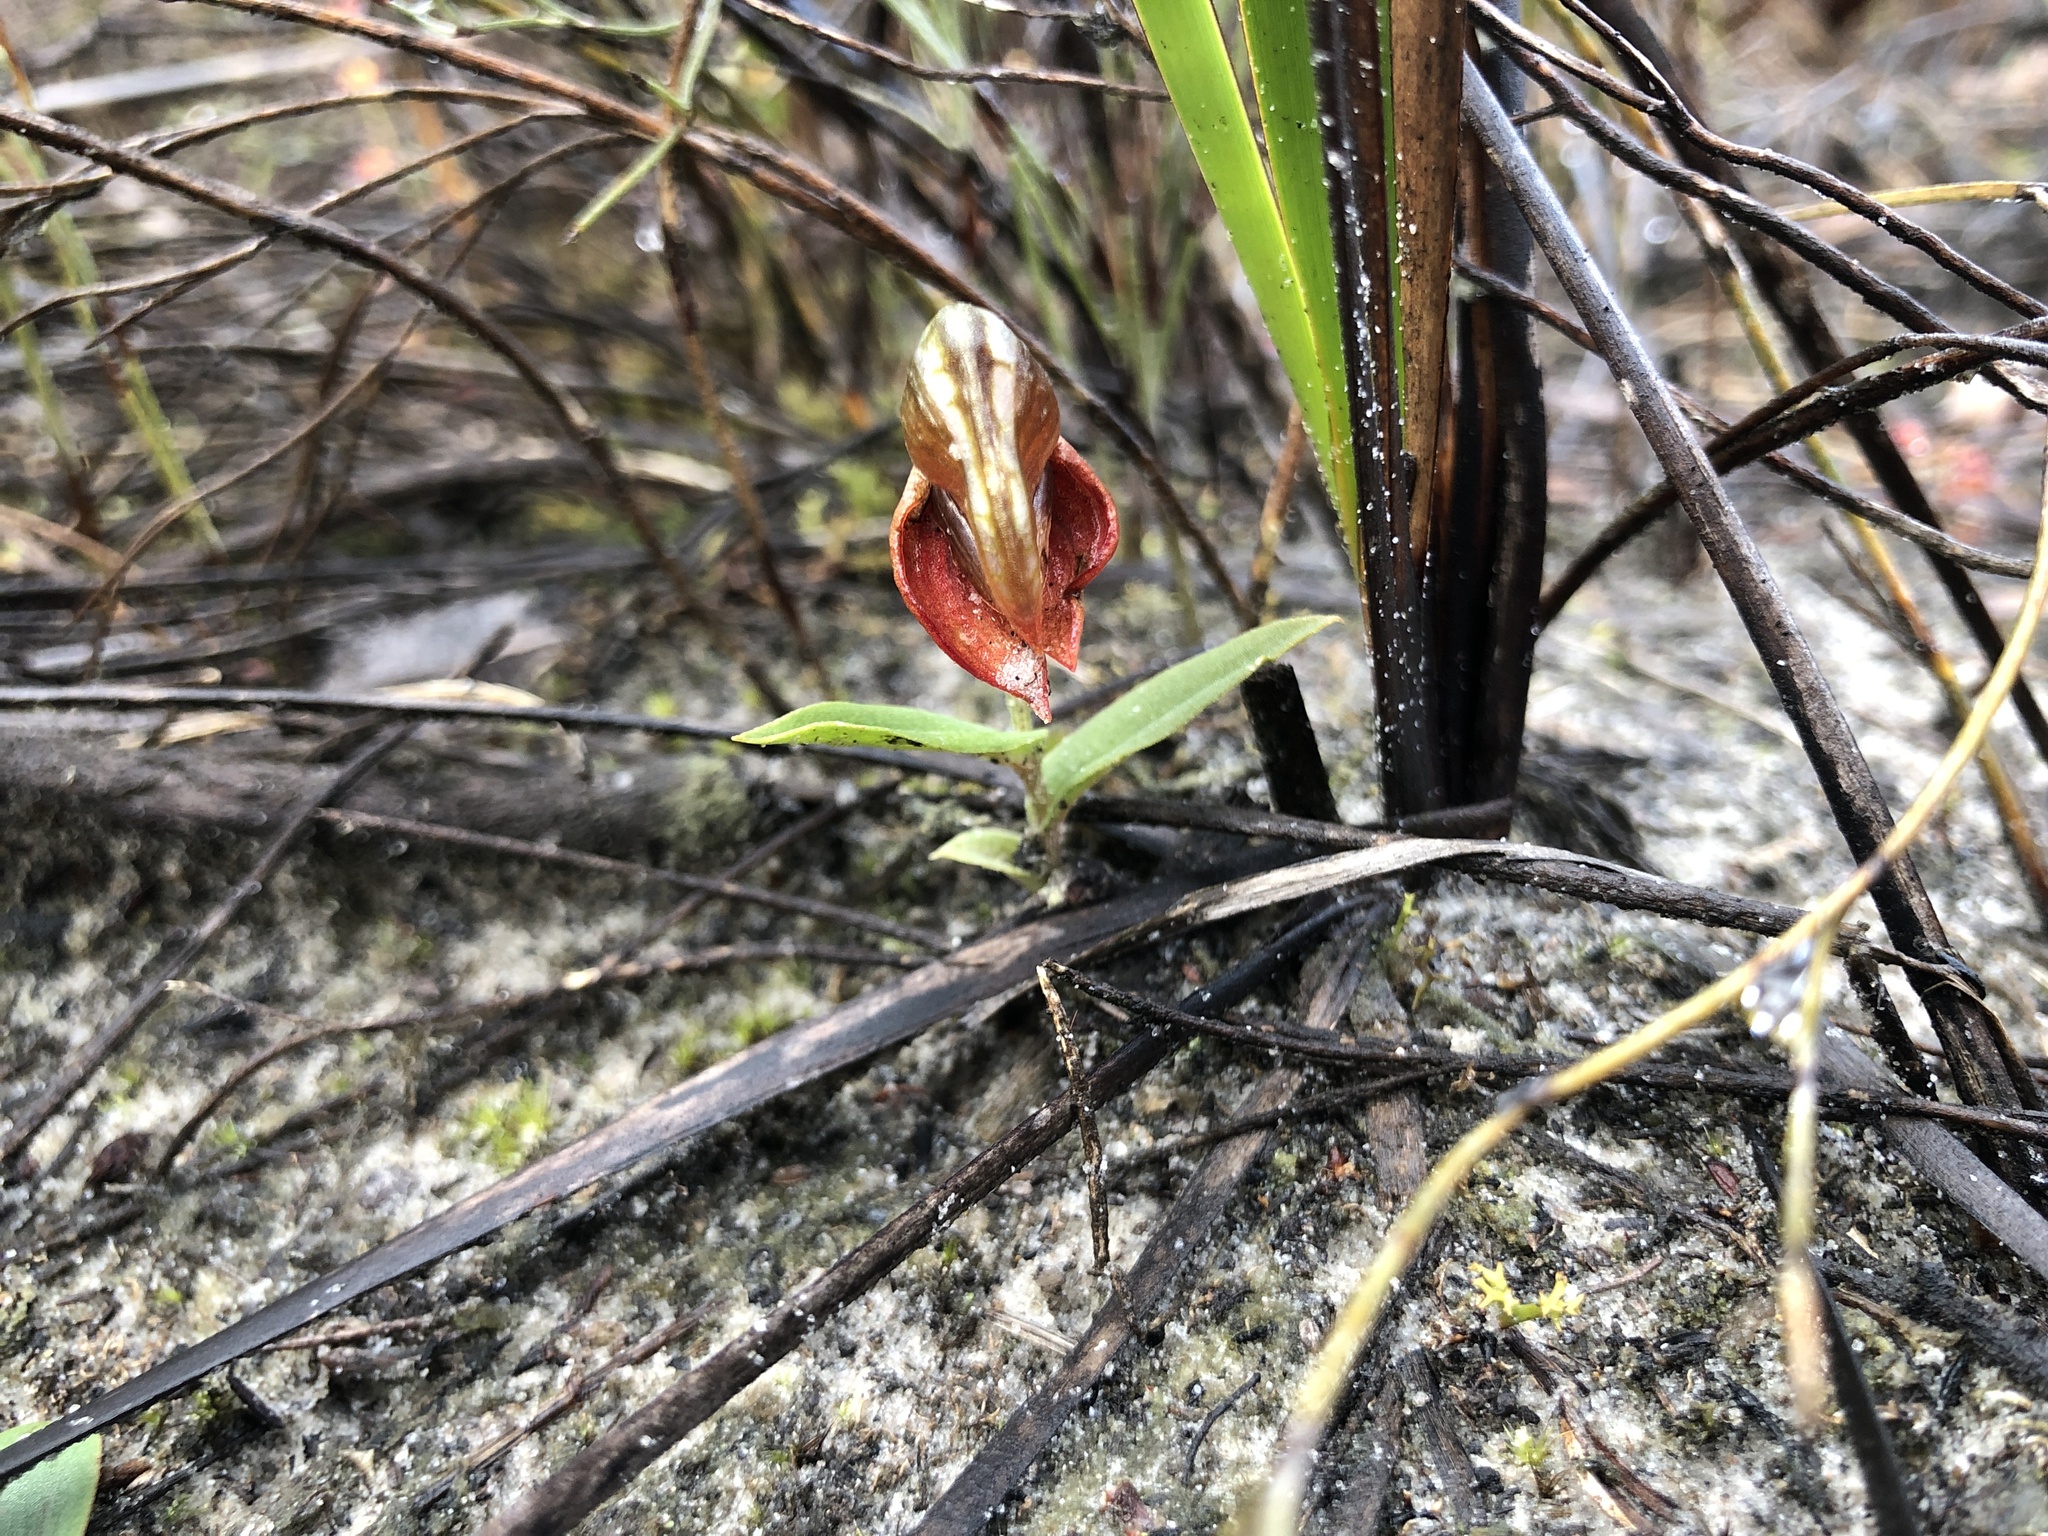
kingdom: Plantae
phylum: Tracheophyta
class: Liliopsida
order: Asparagales
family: Orchidaceae
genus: Pterostylis
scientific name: Pterostylis sanguinea
